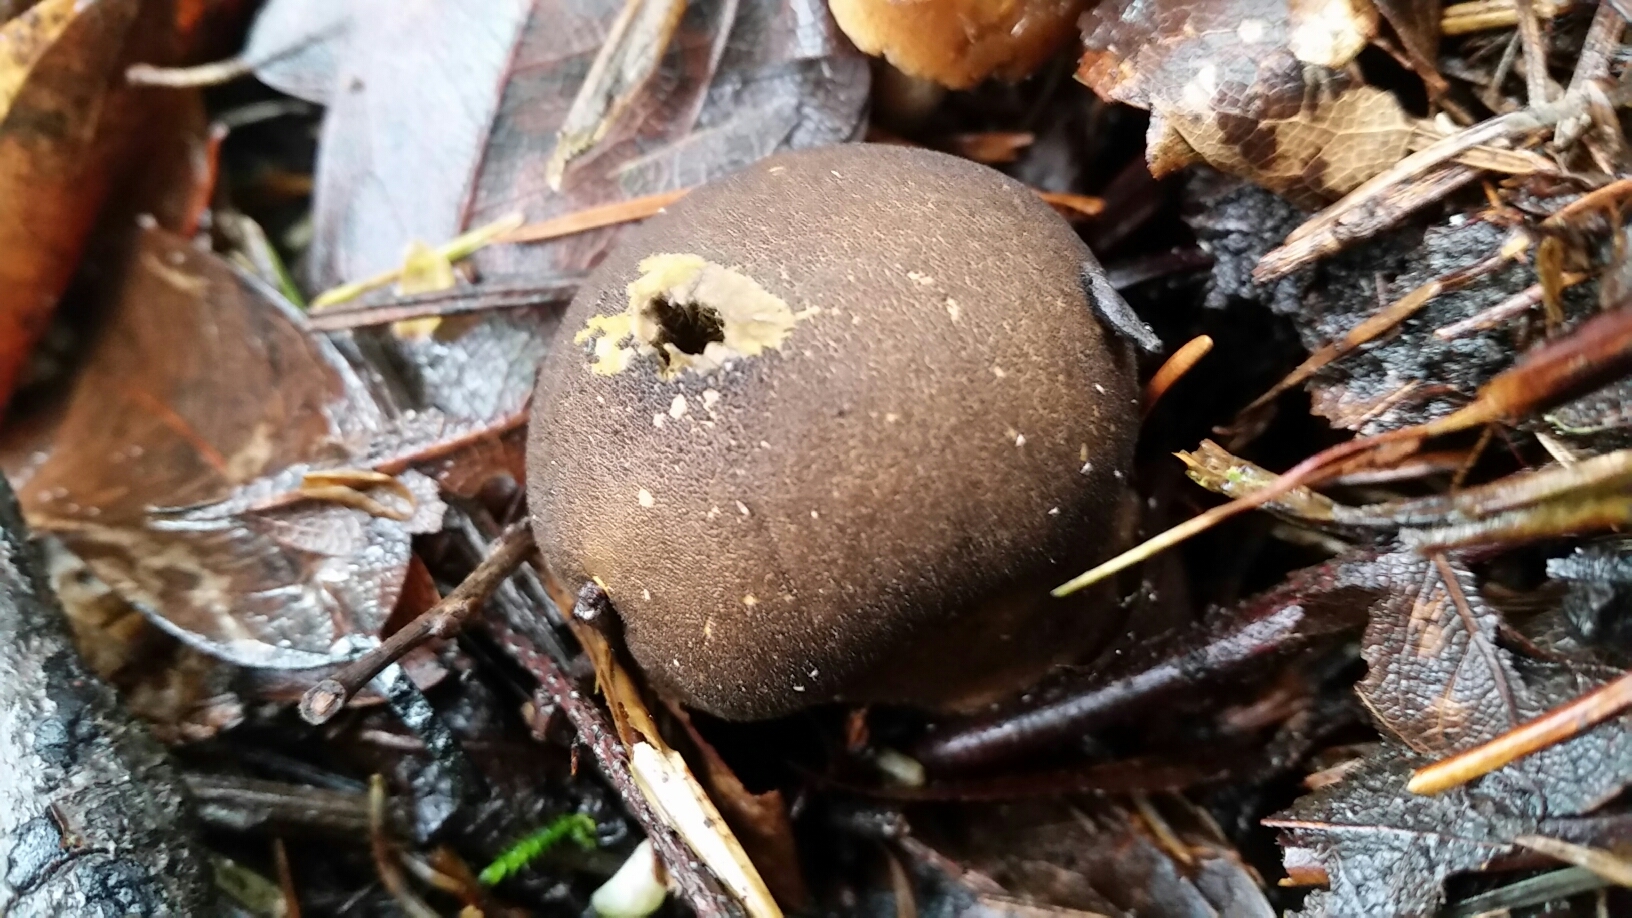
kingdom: Fungi
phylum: Basidiomycota
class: Agaricomycetes
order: Agaricales
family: Lycoperdaceae
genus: Lycoperdon
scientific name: Lycoperdon umbrinum
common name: Umber-brown puffball
